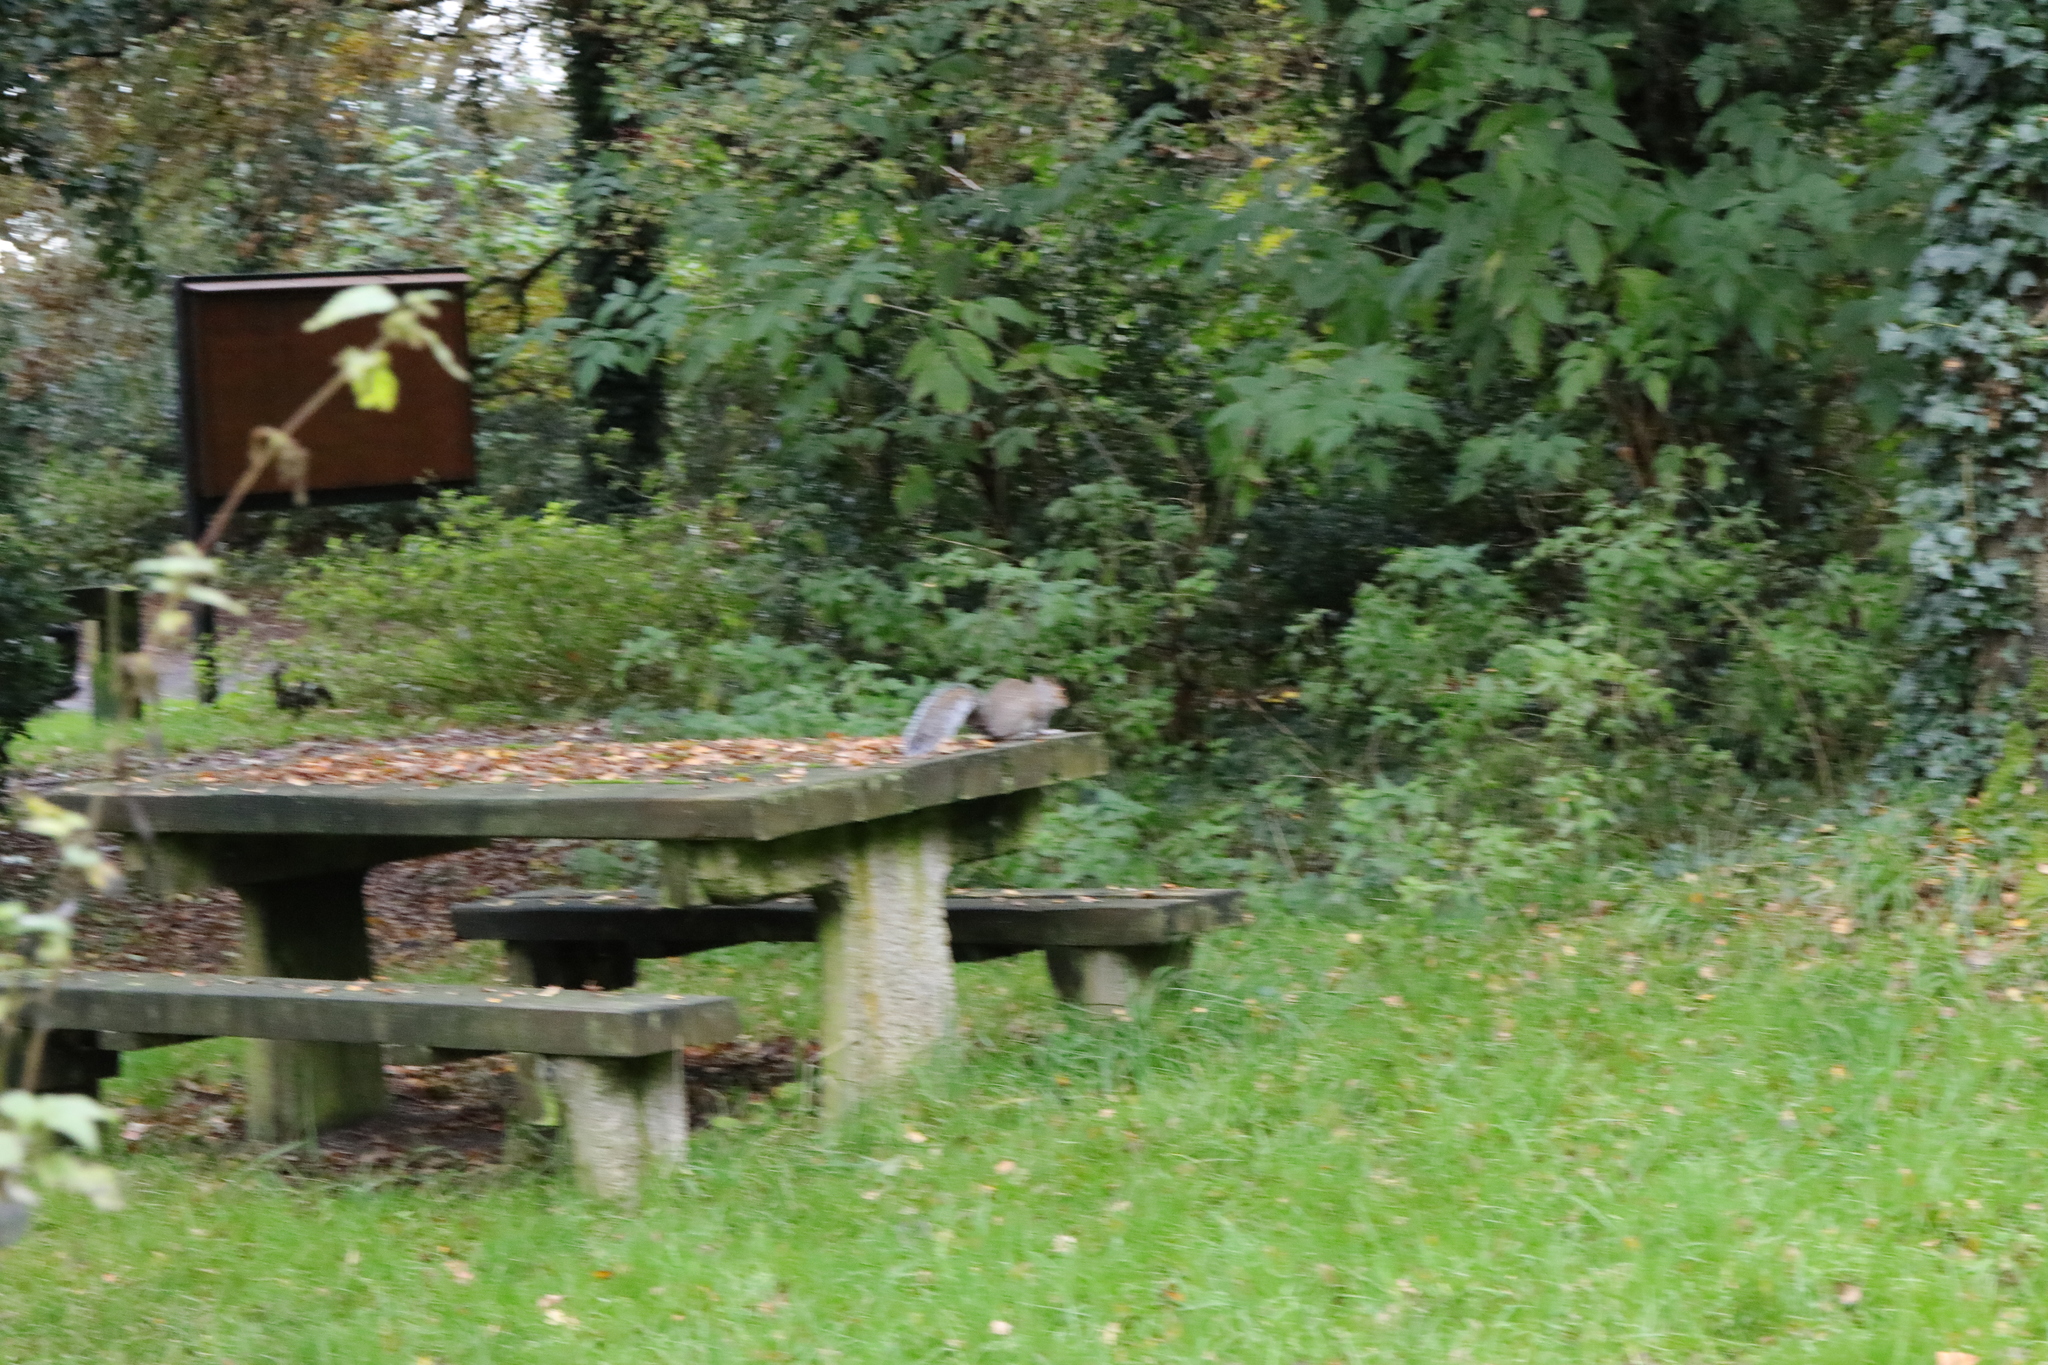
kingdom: Animalia
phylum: Chordata
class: Mammalia
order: Rodentia
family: Sciuridae
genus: Sciurus
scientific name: Sciurus carolinensis
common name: Eastern gray squirrel
